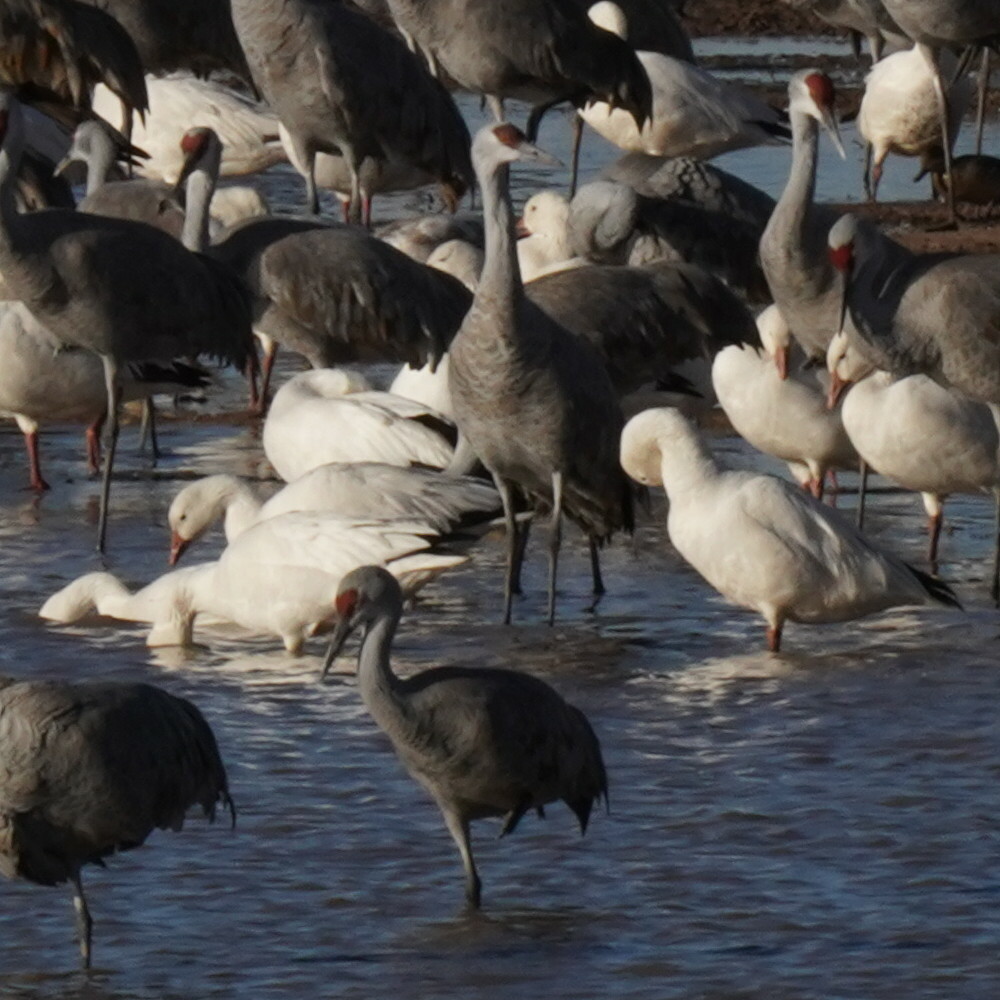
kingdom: Animalia
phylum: Chordata
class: Aves
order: Anseriformes
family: Anatidae
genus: Anser
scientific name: Anser caerulescens
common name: Snow goose
